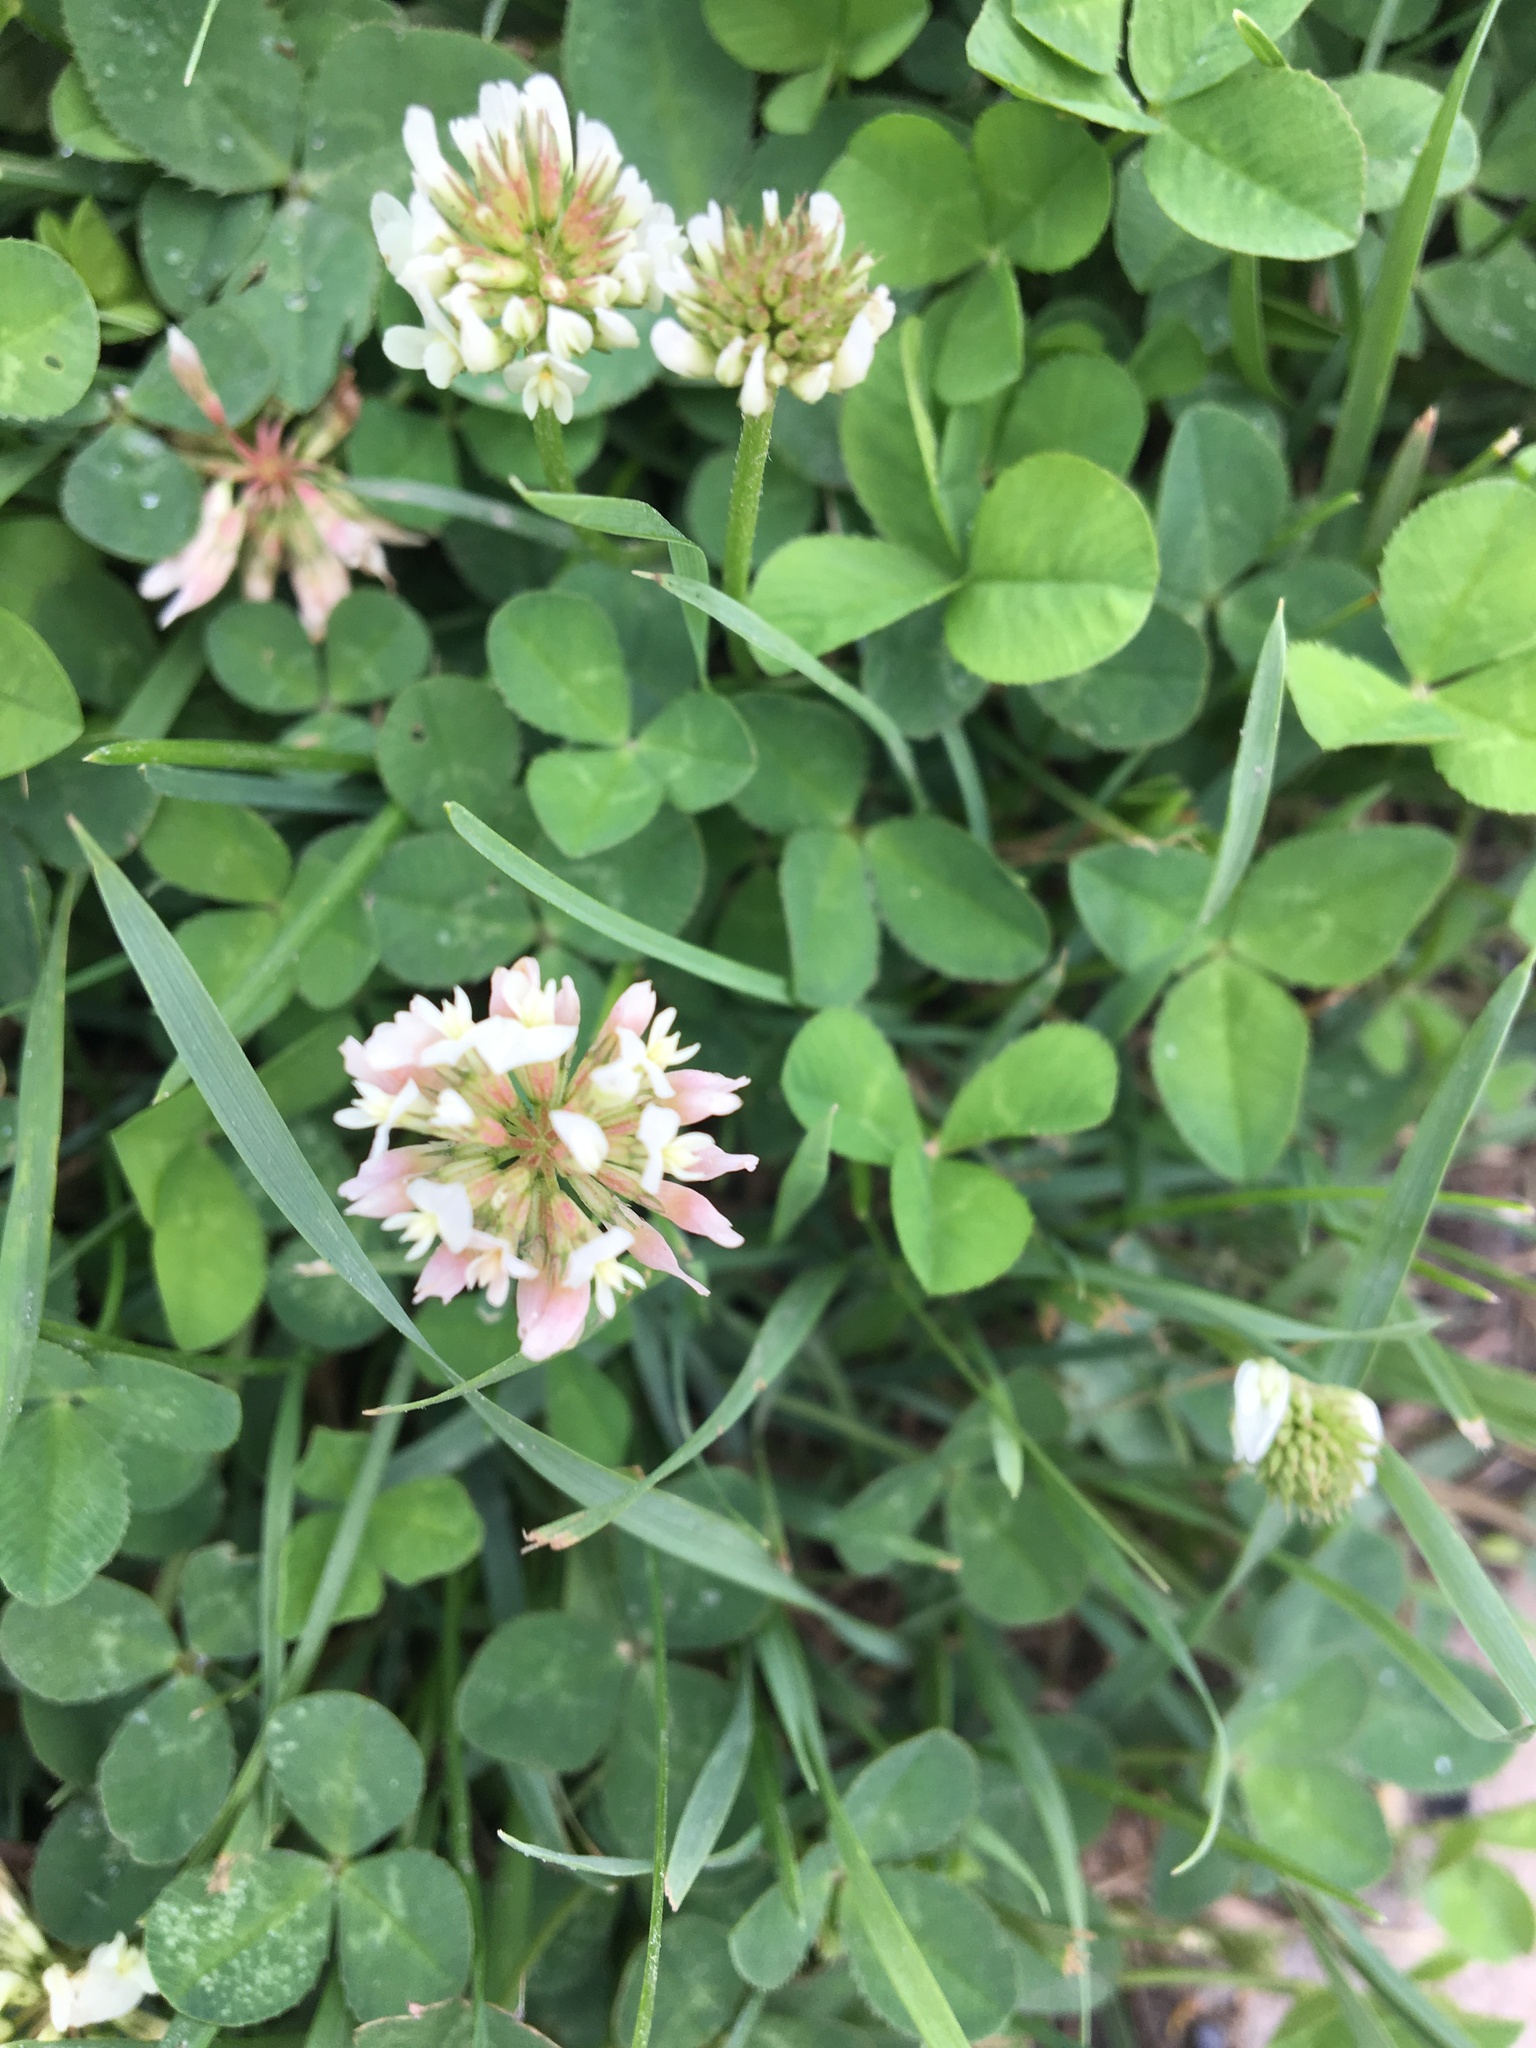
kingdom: Plantae
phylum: Tracheophyta
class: Magnoliopsida
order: Fabales
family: Fabaceae
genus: Trifolium
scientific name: Trifolium repens
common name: White clover
